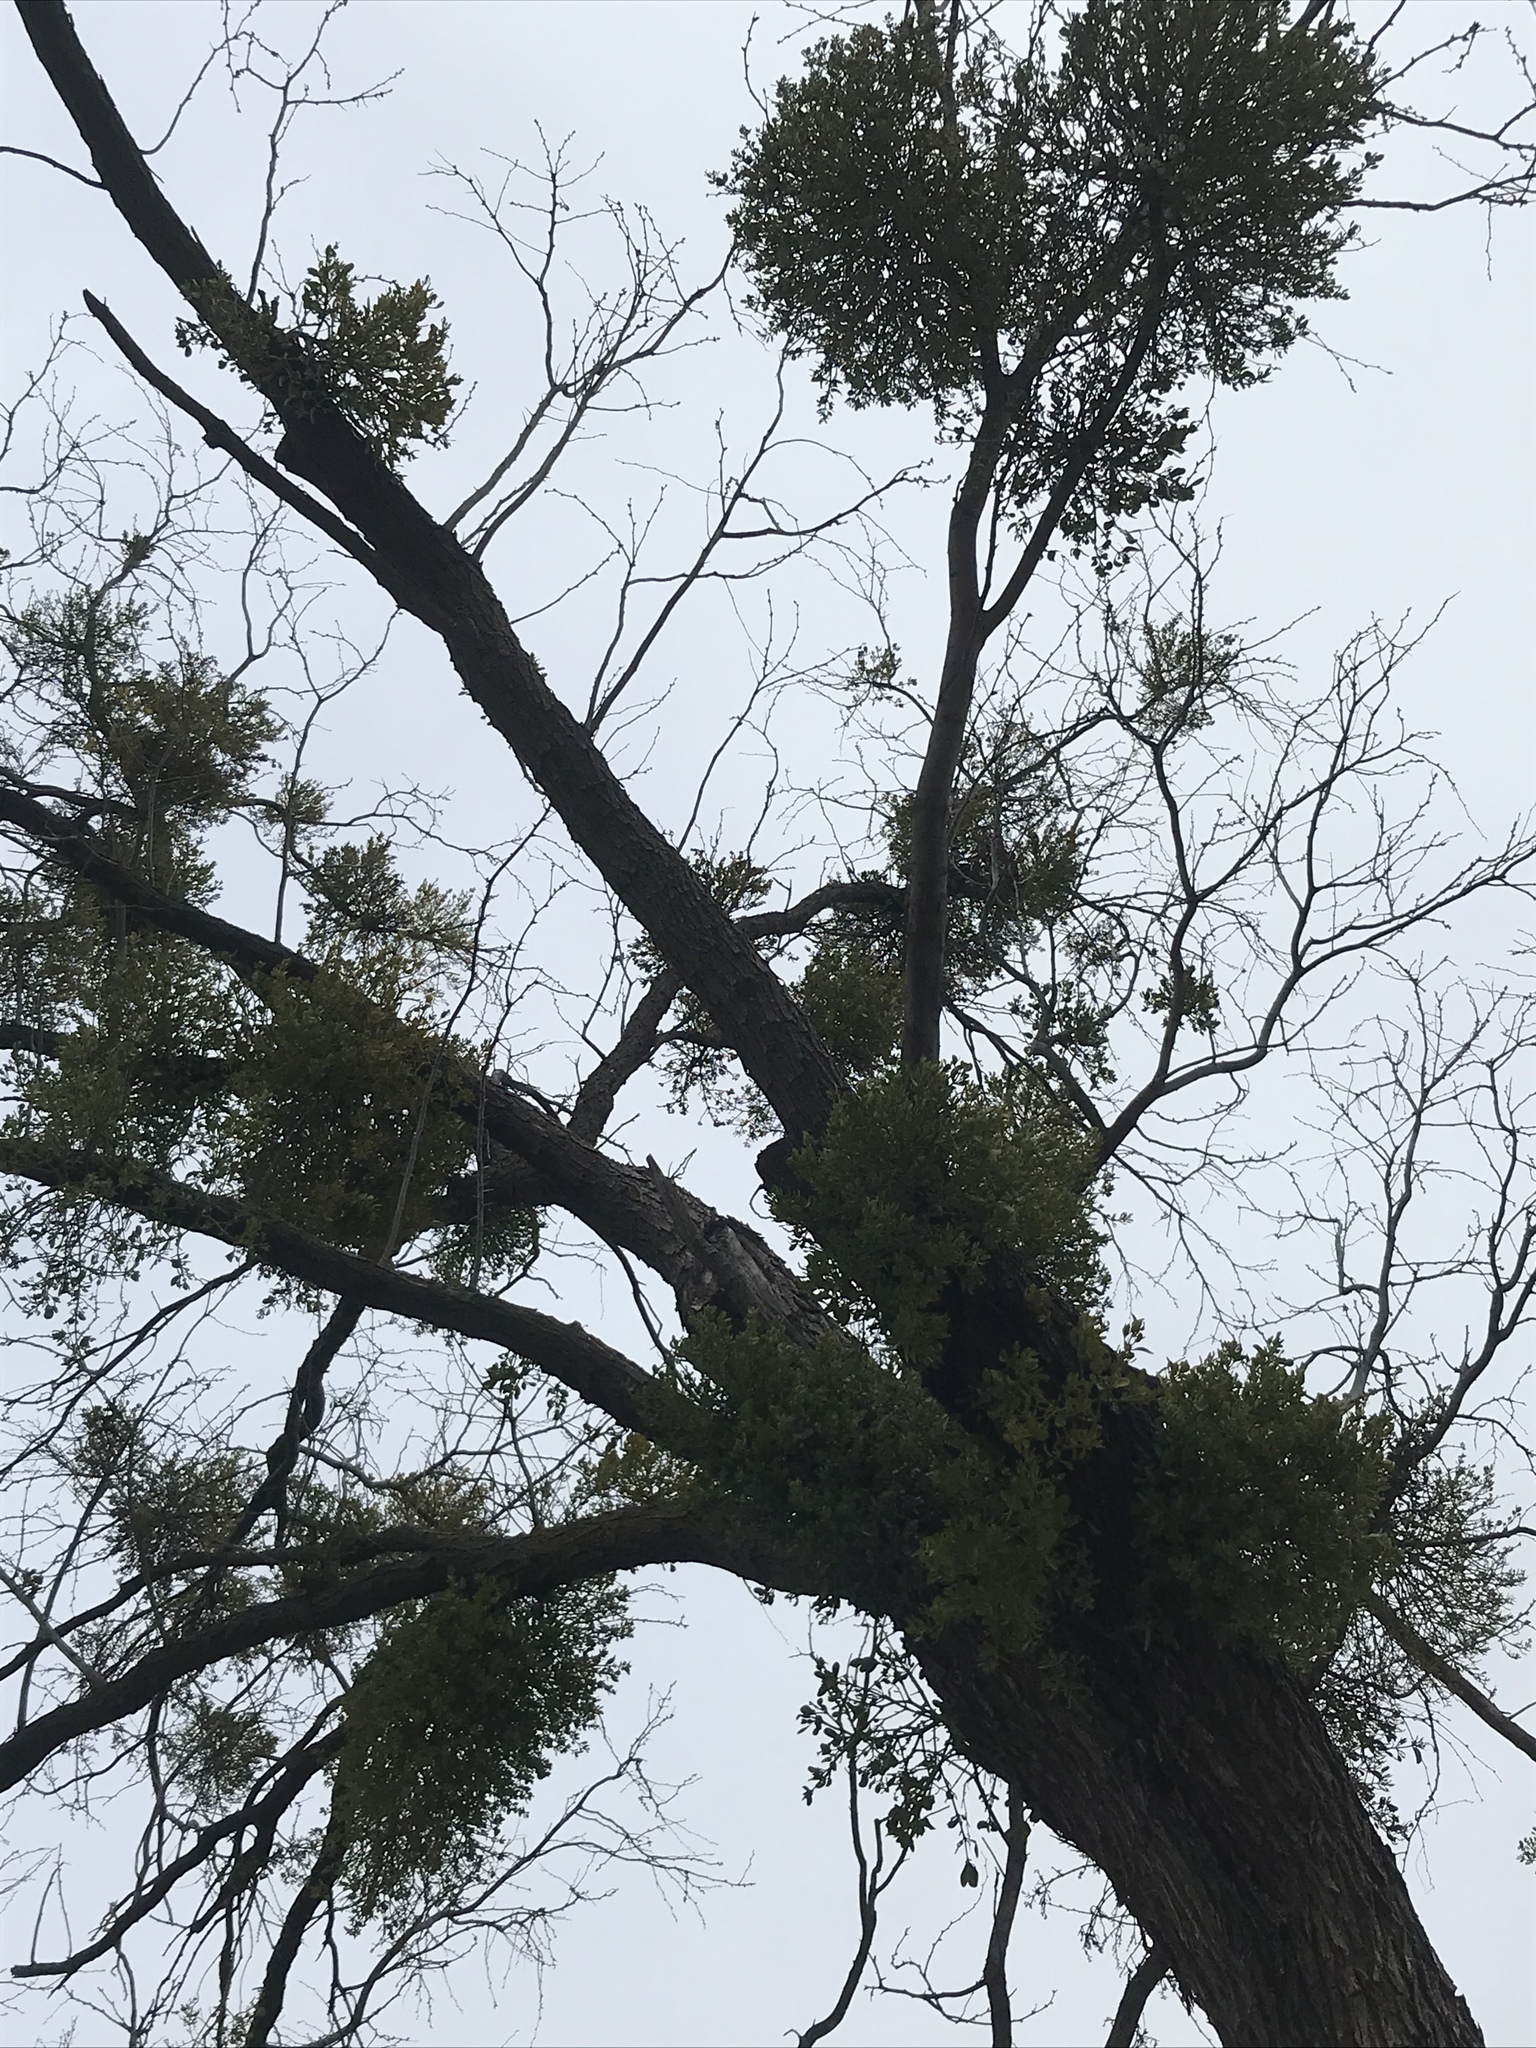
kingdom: Plantae
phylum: Tracheophyta
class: Magnoliopsida
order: Santalales
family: Viscaceae
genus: Phoradendron
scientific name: Phoradendron leucarpum
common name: Pacific mistletoe
